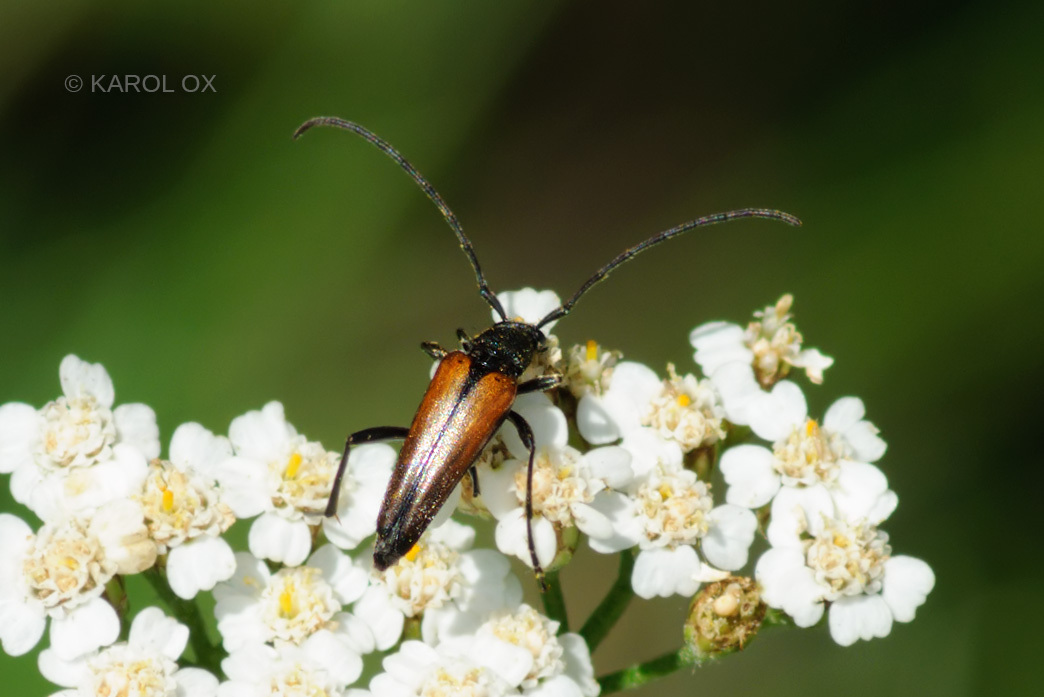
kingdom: Animalia
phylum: Arthropoda
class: Insecta
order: Coleoptera
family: Cerambycidae
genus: Stenurella
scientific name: Stenurella melanura
